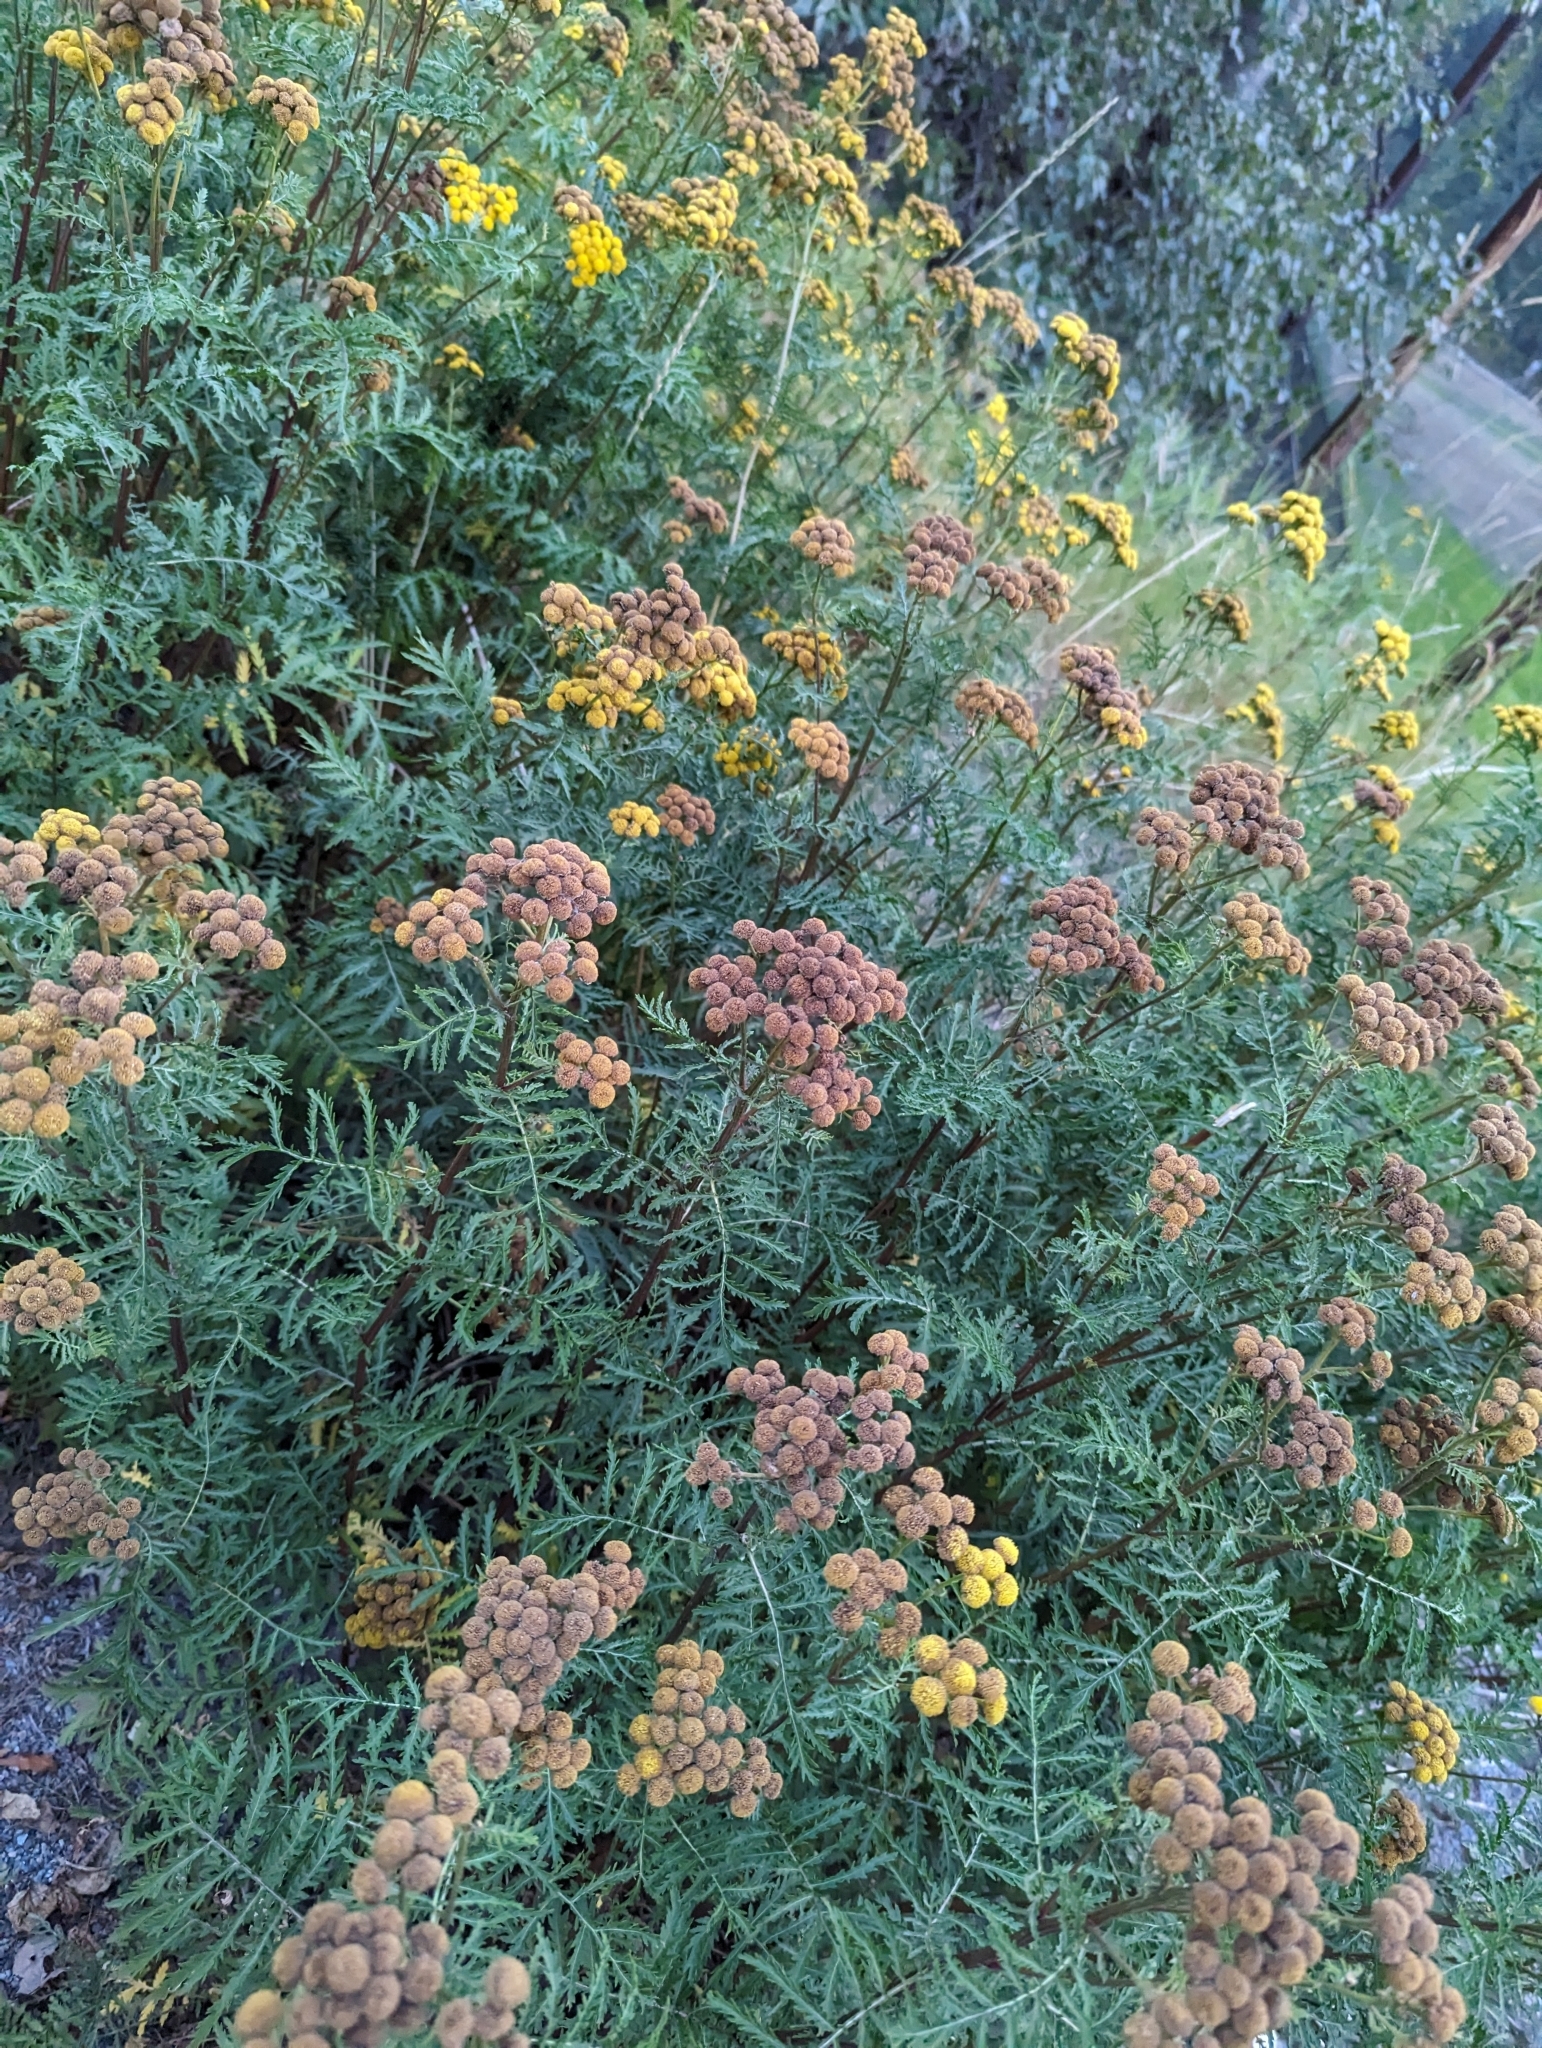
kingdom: Plantae
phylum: Tracheophyta
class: Magnoliopsida
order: Asterales
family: Asteraceae
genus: Tanacetum
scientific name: Tanacetum vulgare
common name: Common tansy
